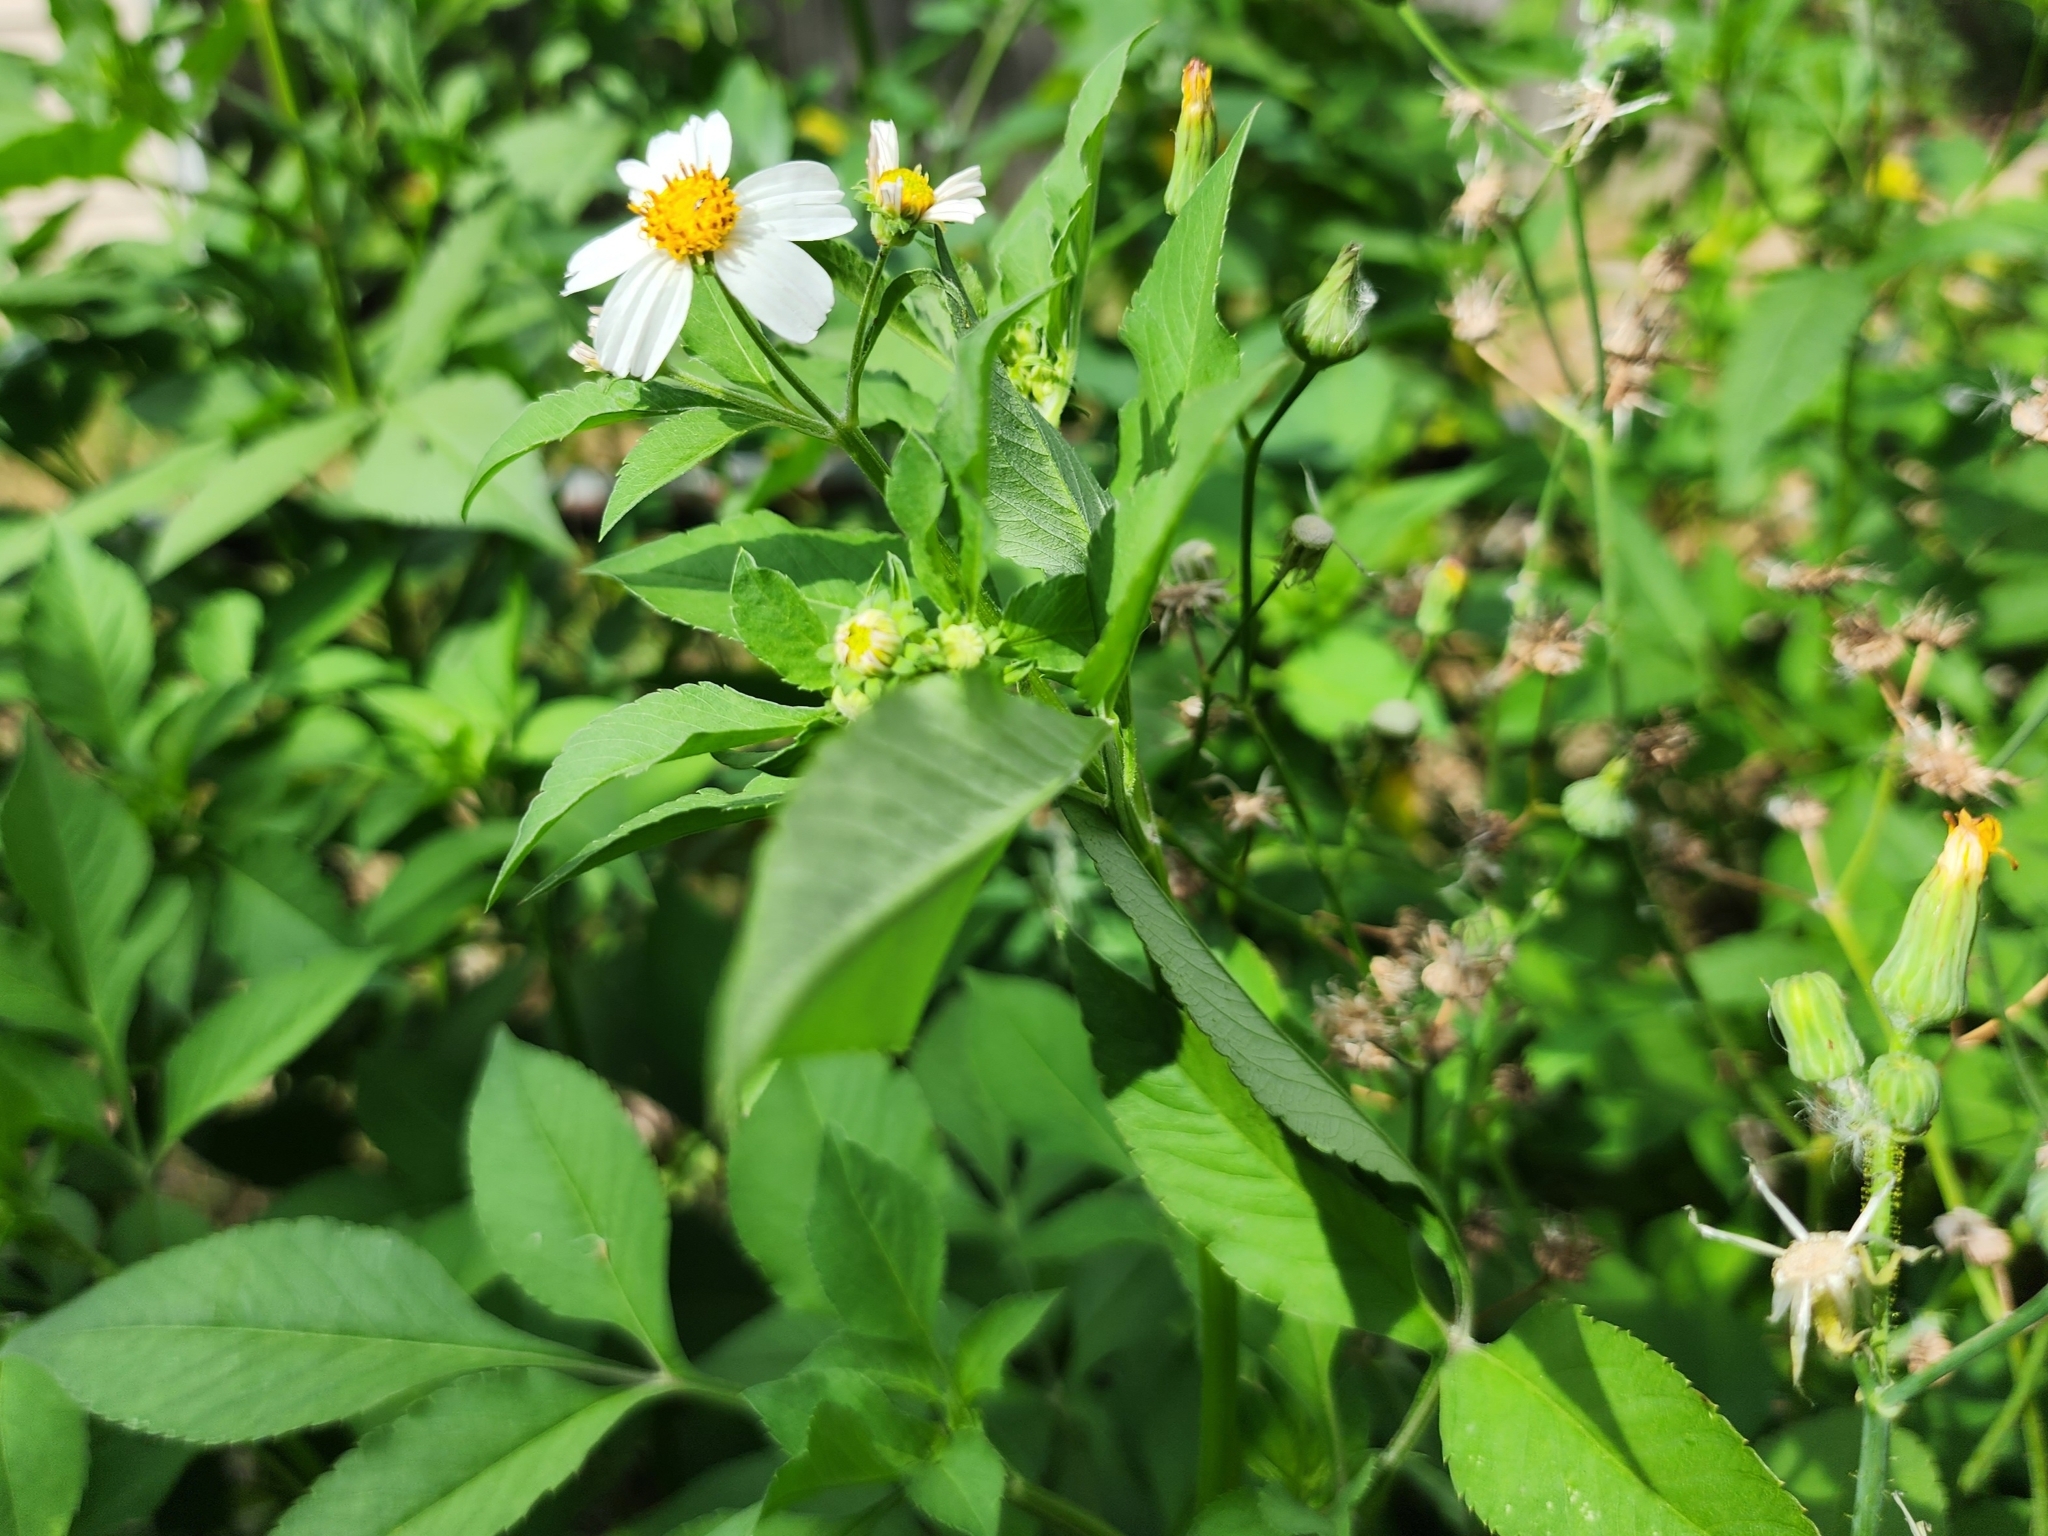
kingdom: Plantae
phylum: Tracheophyta
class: Magnoliopsida
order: Asterales
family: Asteraceae
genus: Bidens
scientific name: Bidens alba
